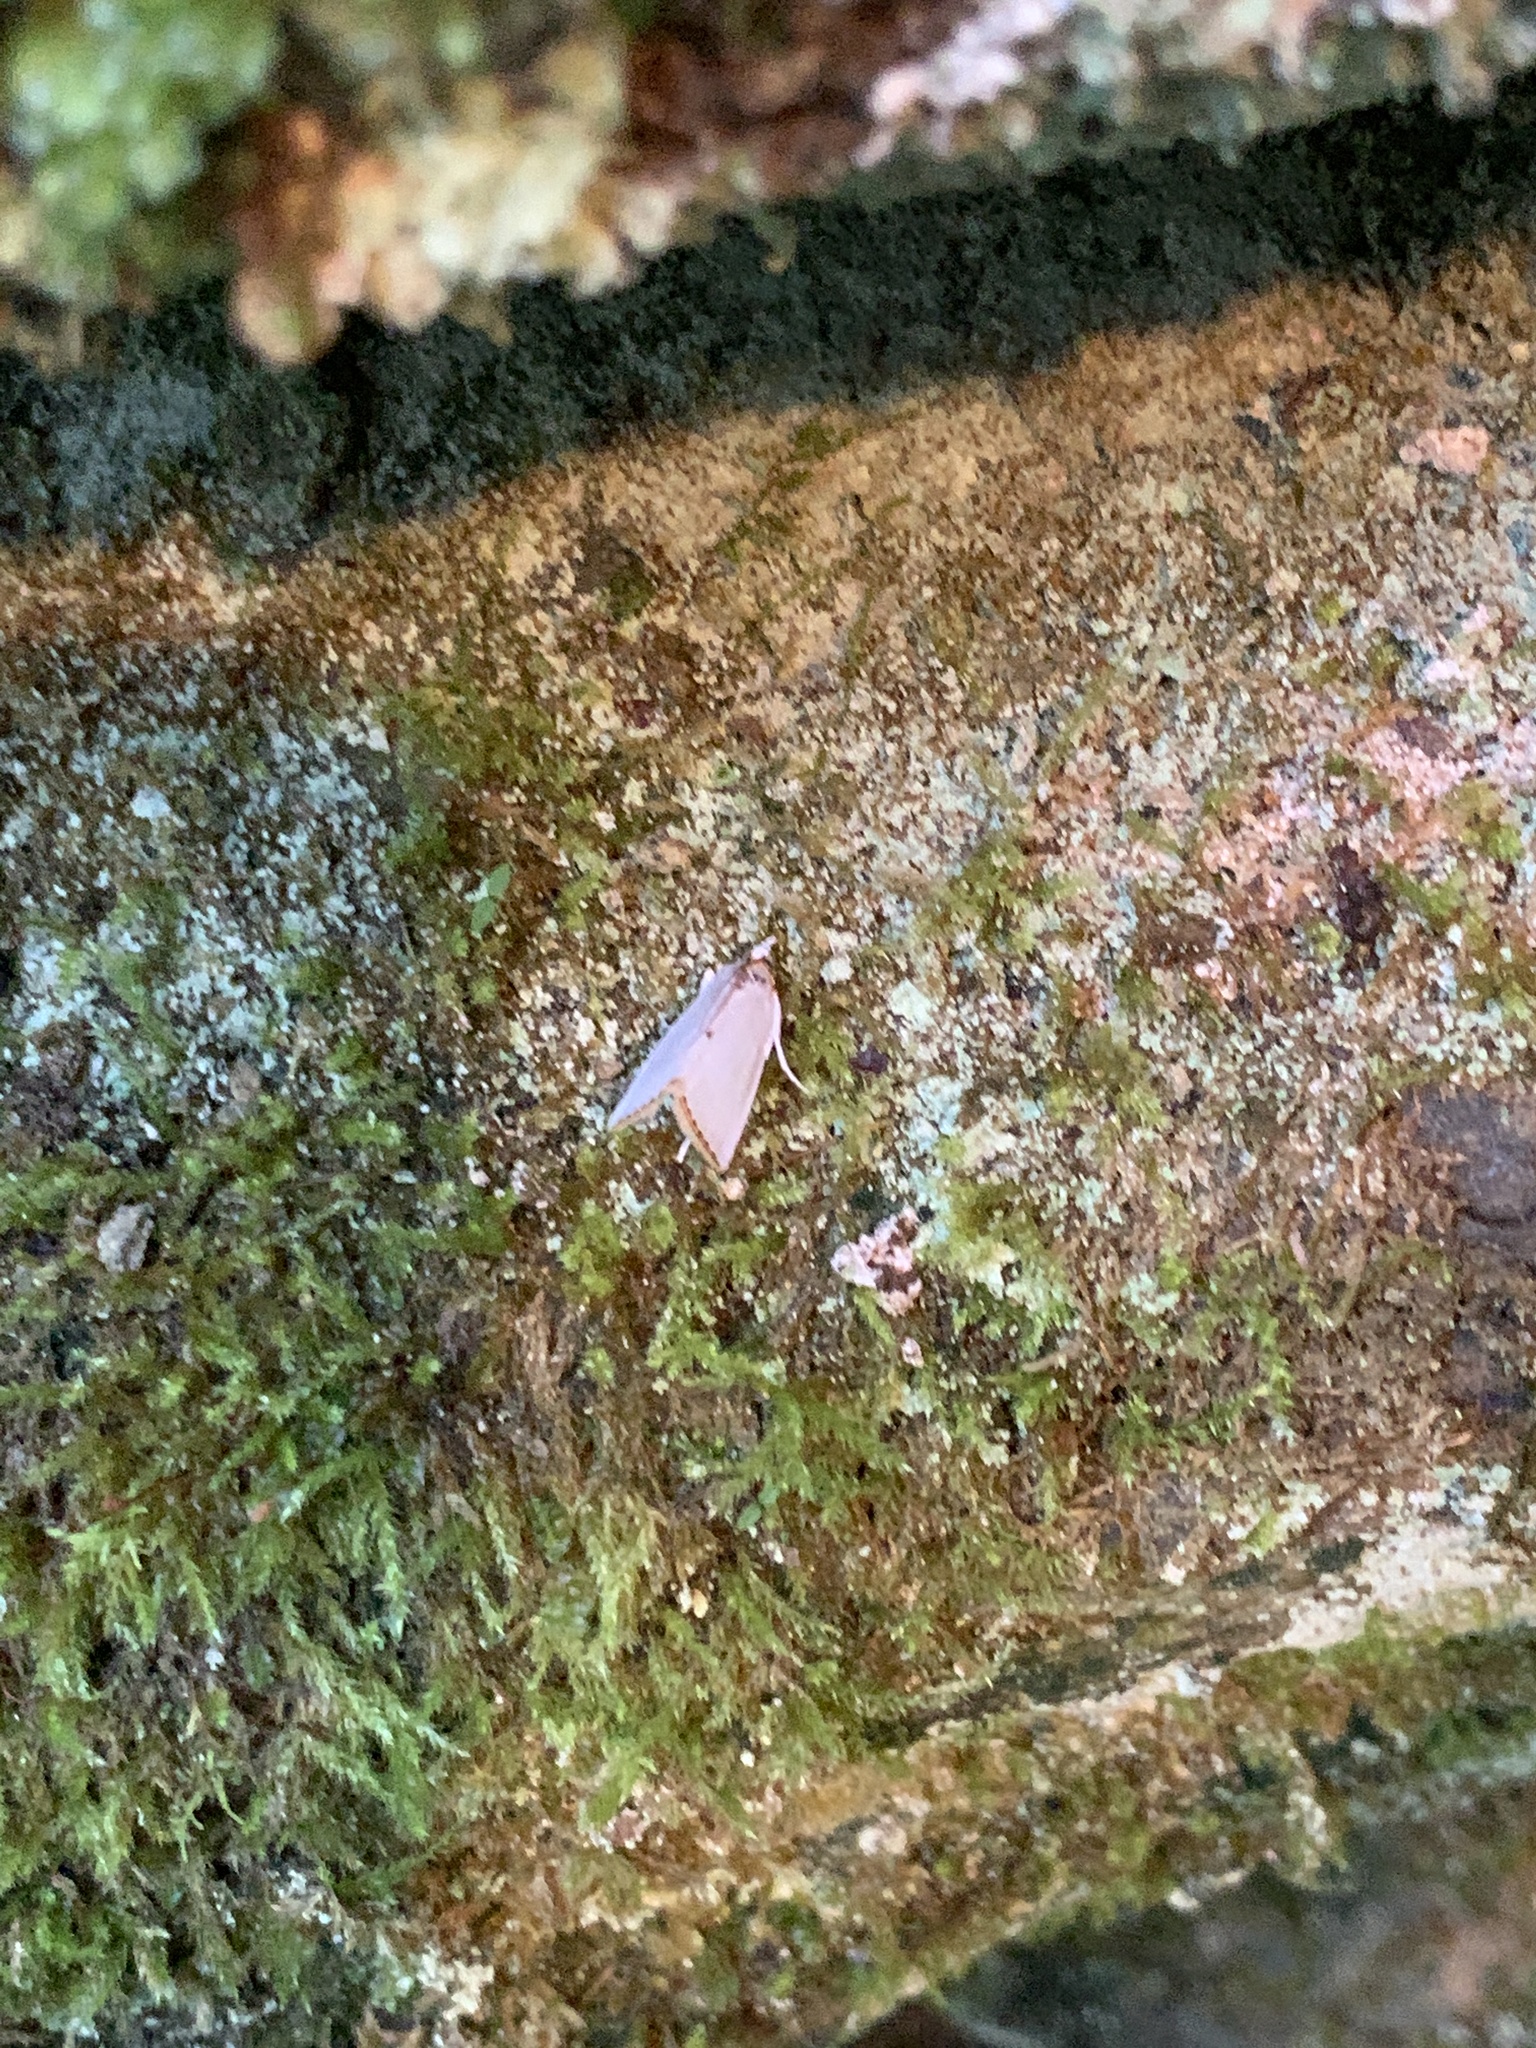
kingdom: Animalia
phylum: Arthropoda
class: Insecta
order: Lepidoptera
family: Crambidae
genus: Argyria
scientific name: Argyria nivalis
